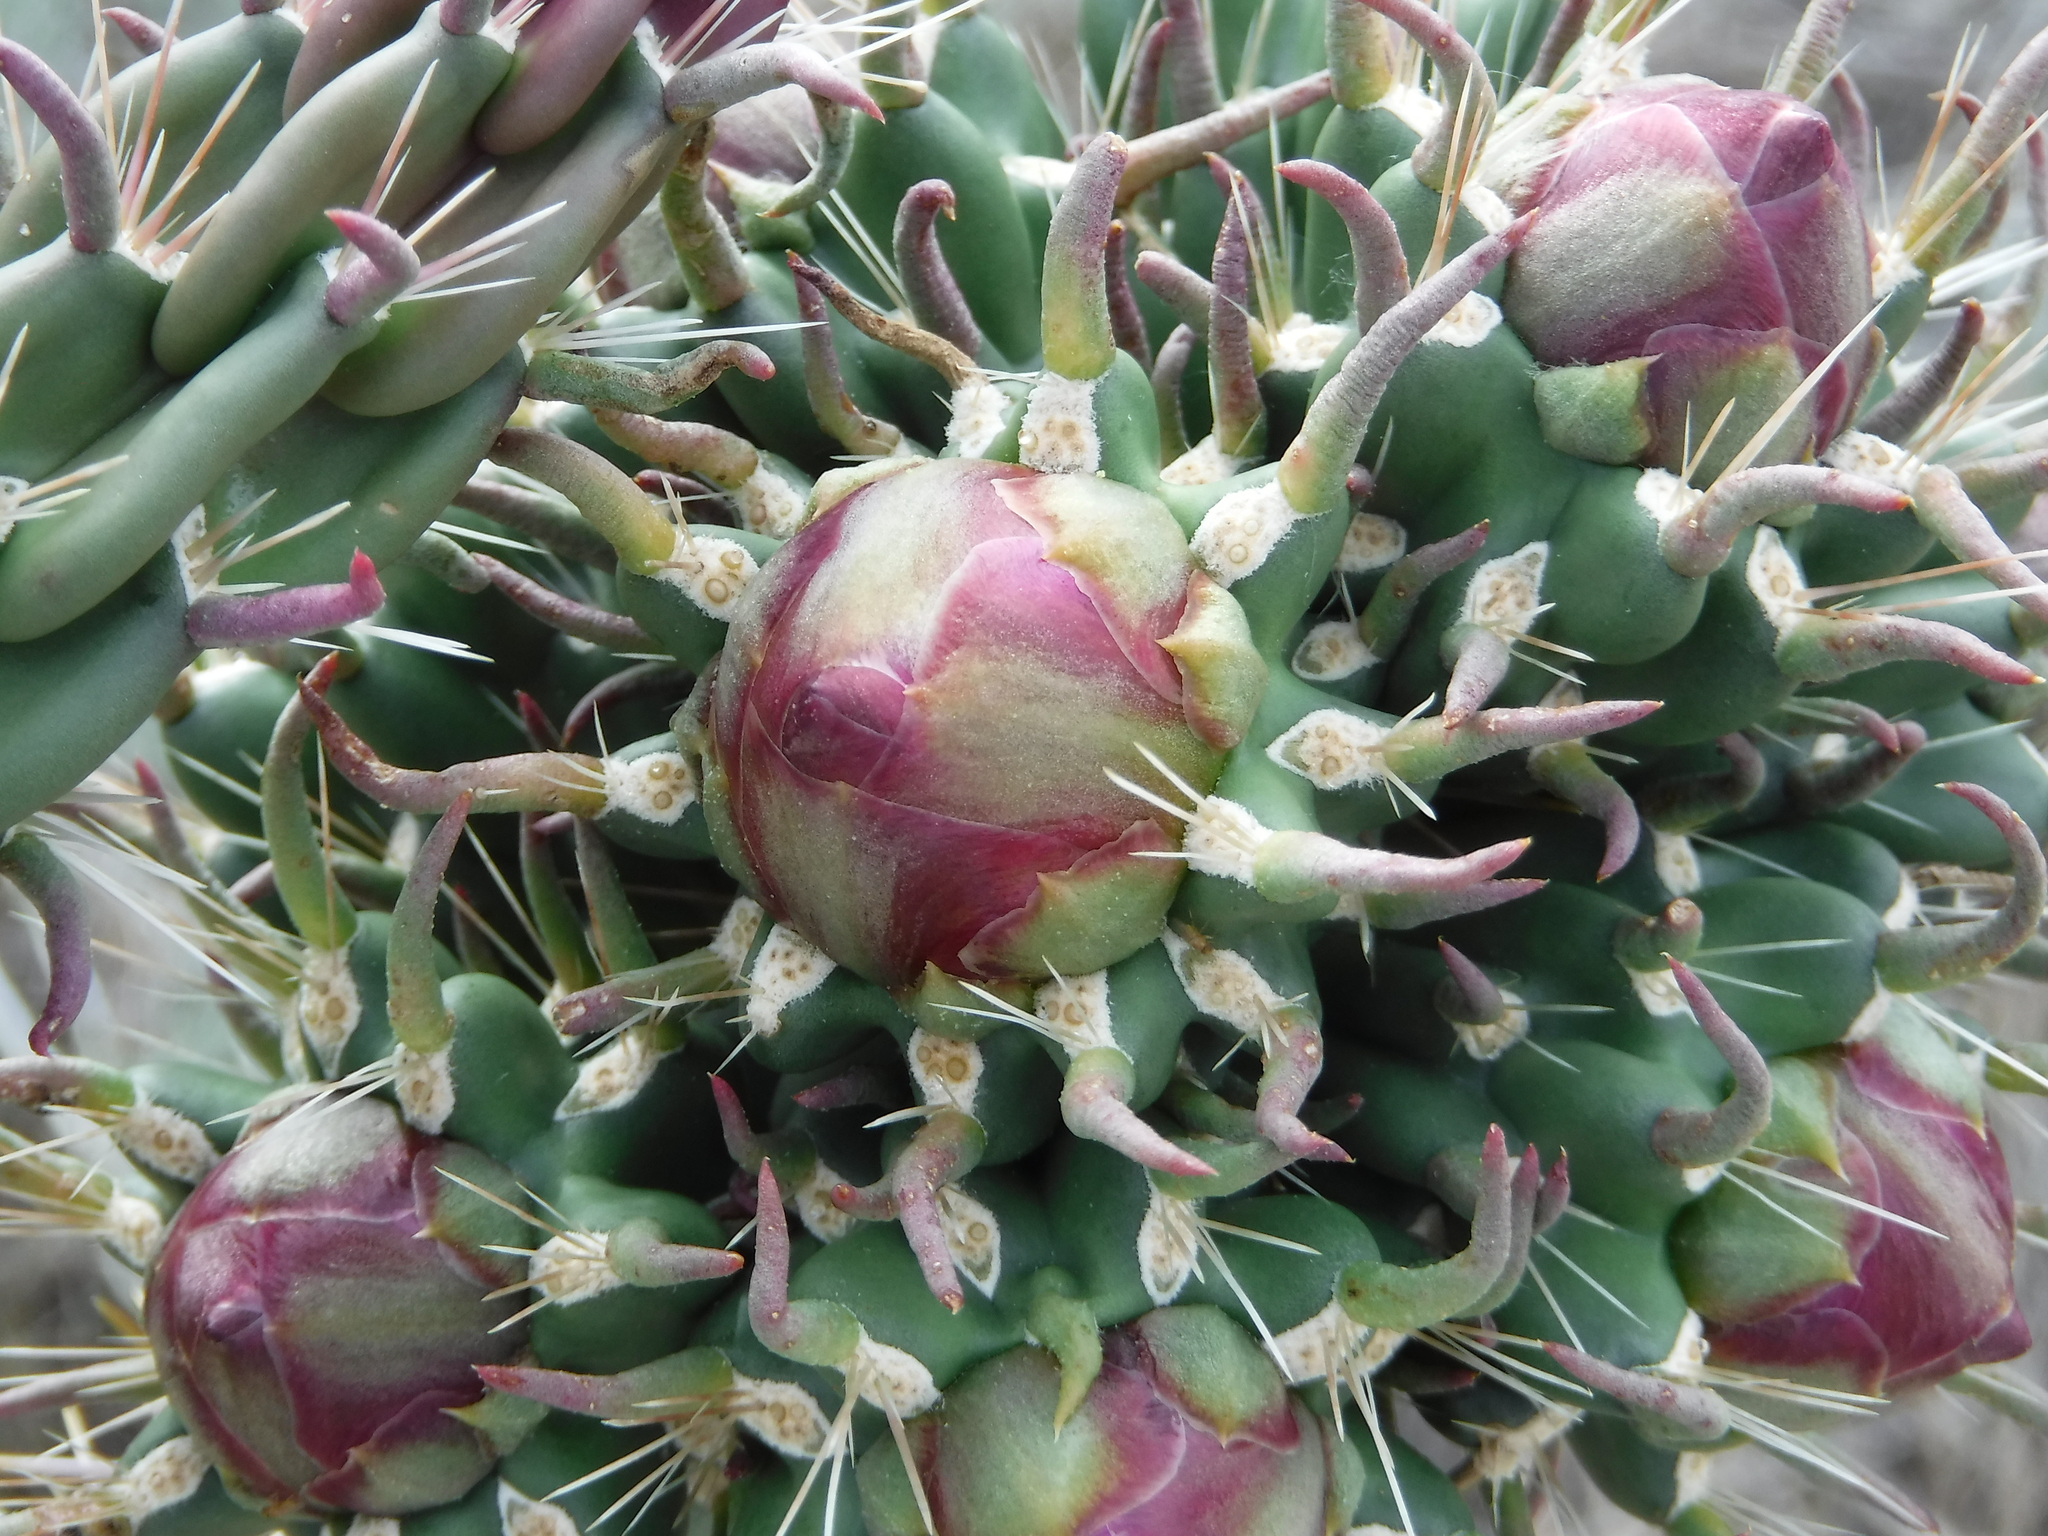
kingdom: Plantae
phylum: Tracheophyta
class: Magnoliopsida
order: Caryophyllales
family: Cactaceae
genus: Cylindropuntia
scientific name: Cylindropuntia imbricata
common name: Candelabrum cactus
